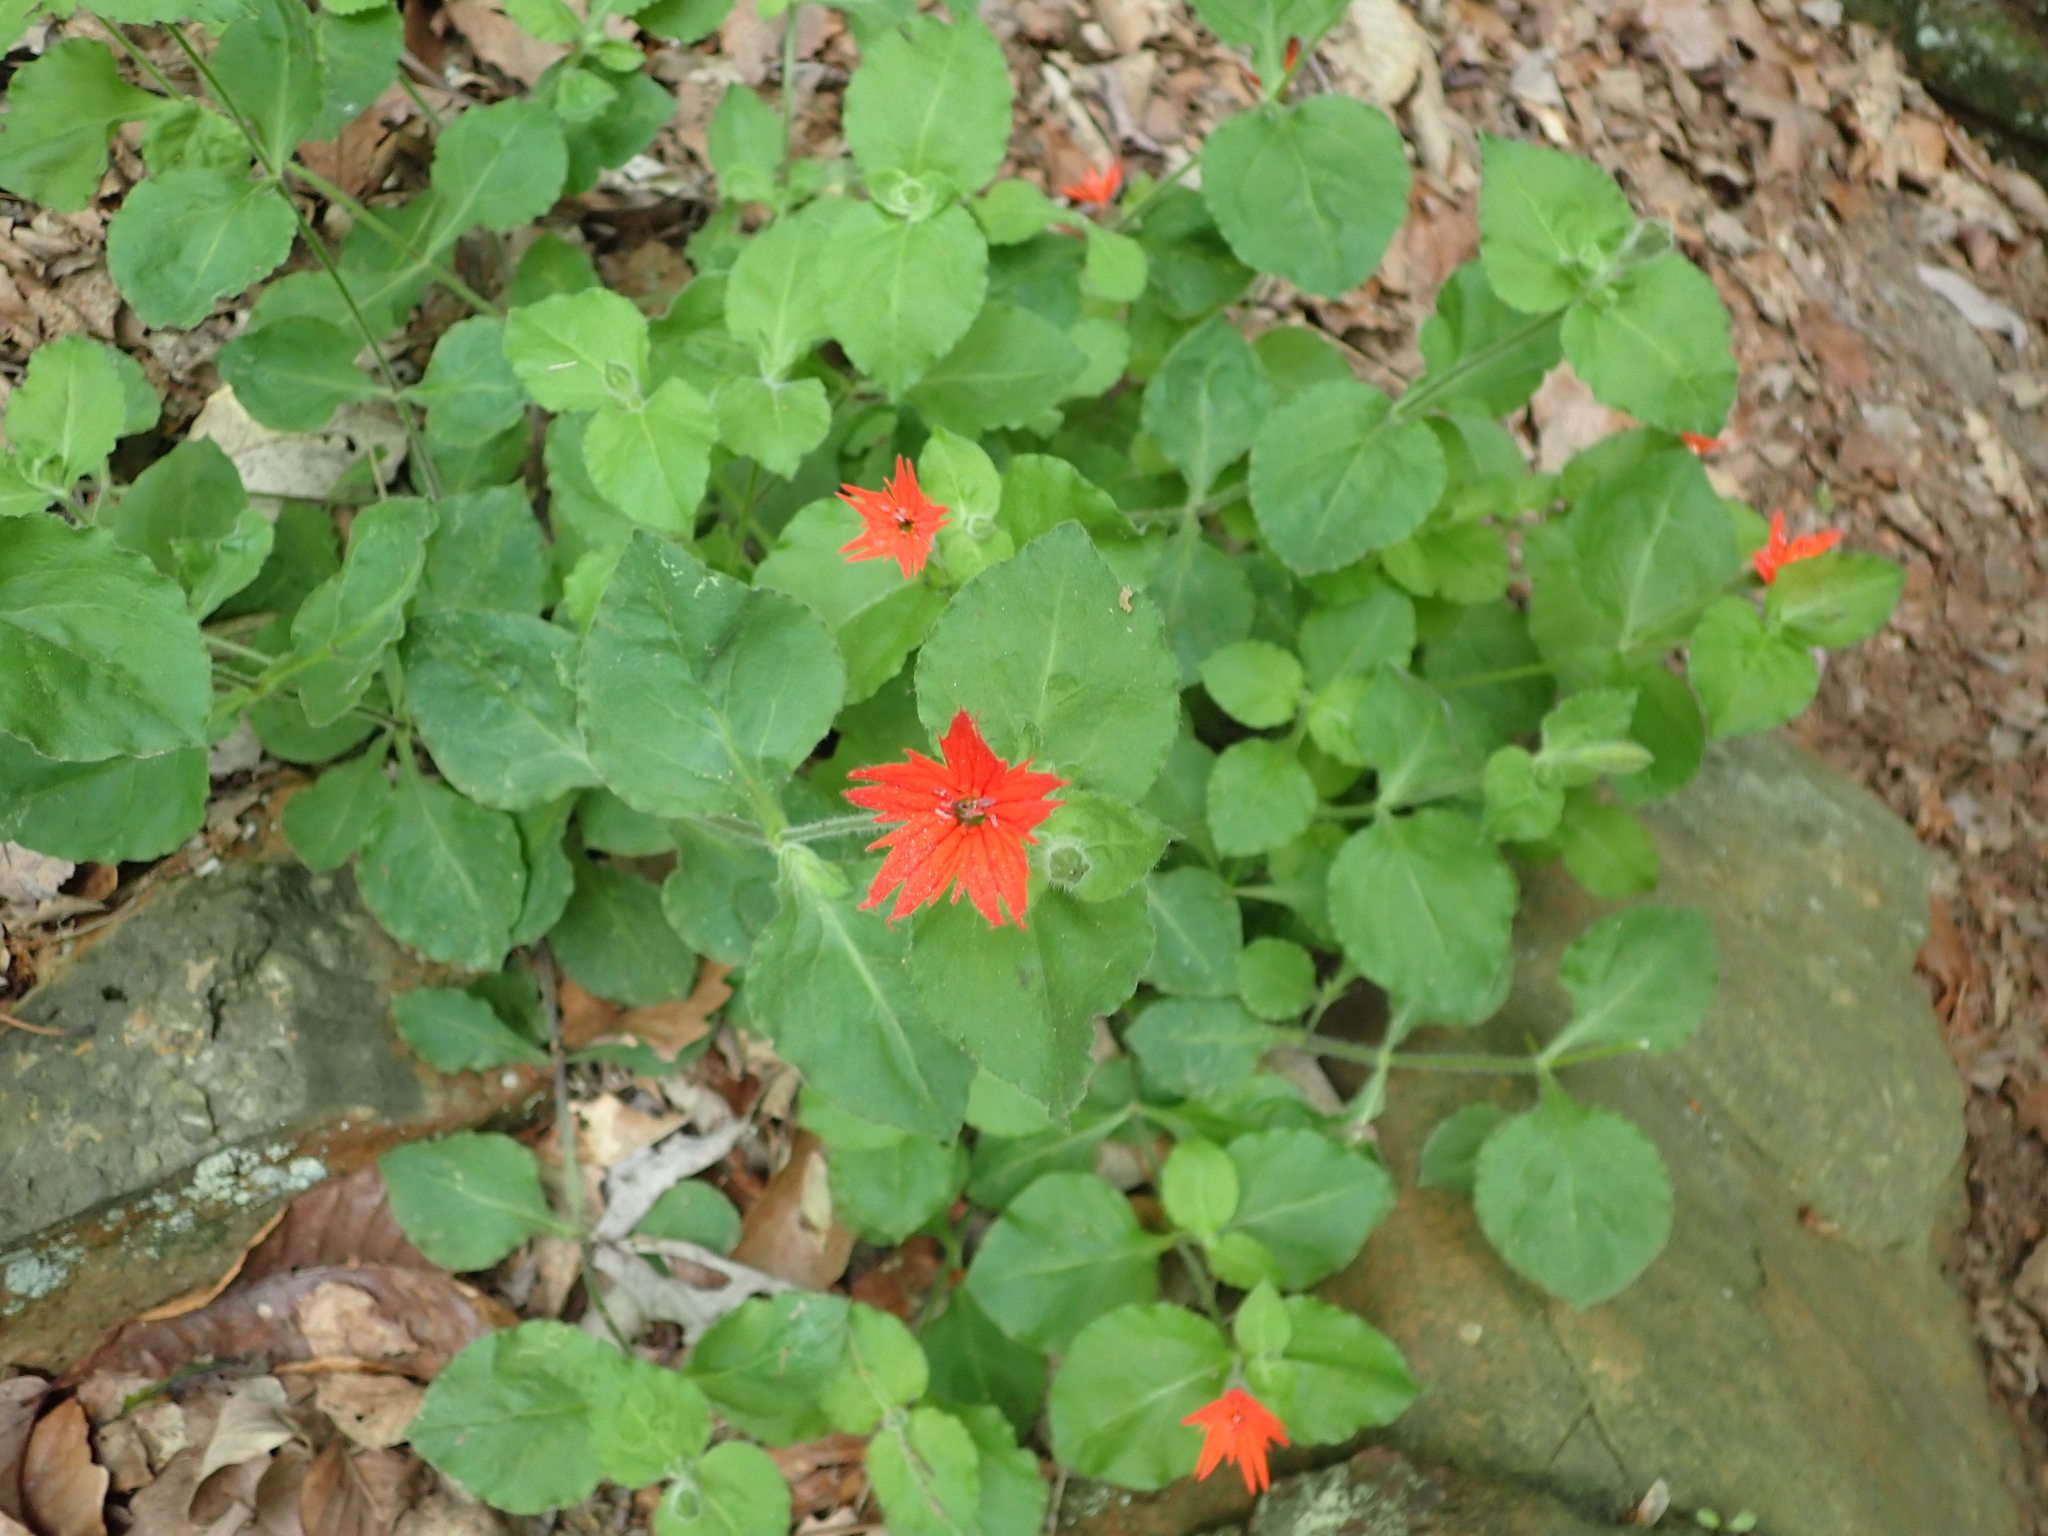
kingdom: Plantae
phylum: Tracheophyta
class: Magnoliopsida
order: Caryophyllales
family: Caryophyllaceae
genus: Silene
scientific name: Silene rotundifolia
